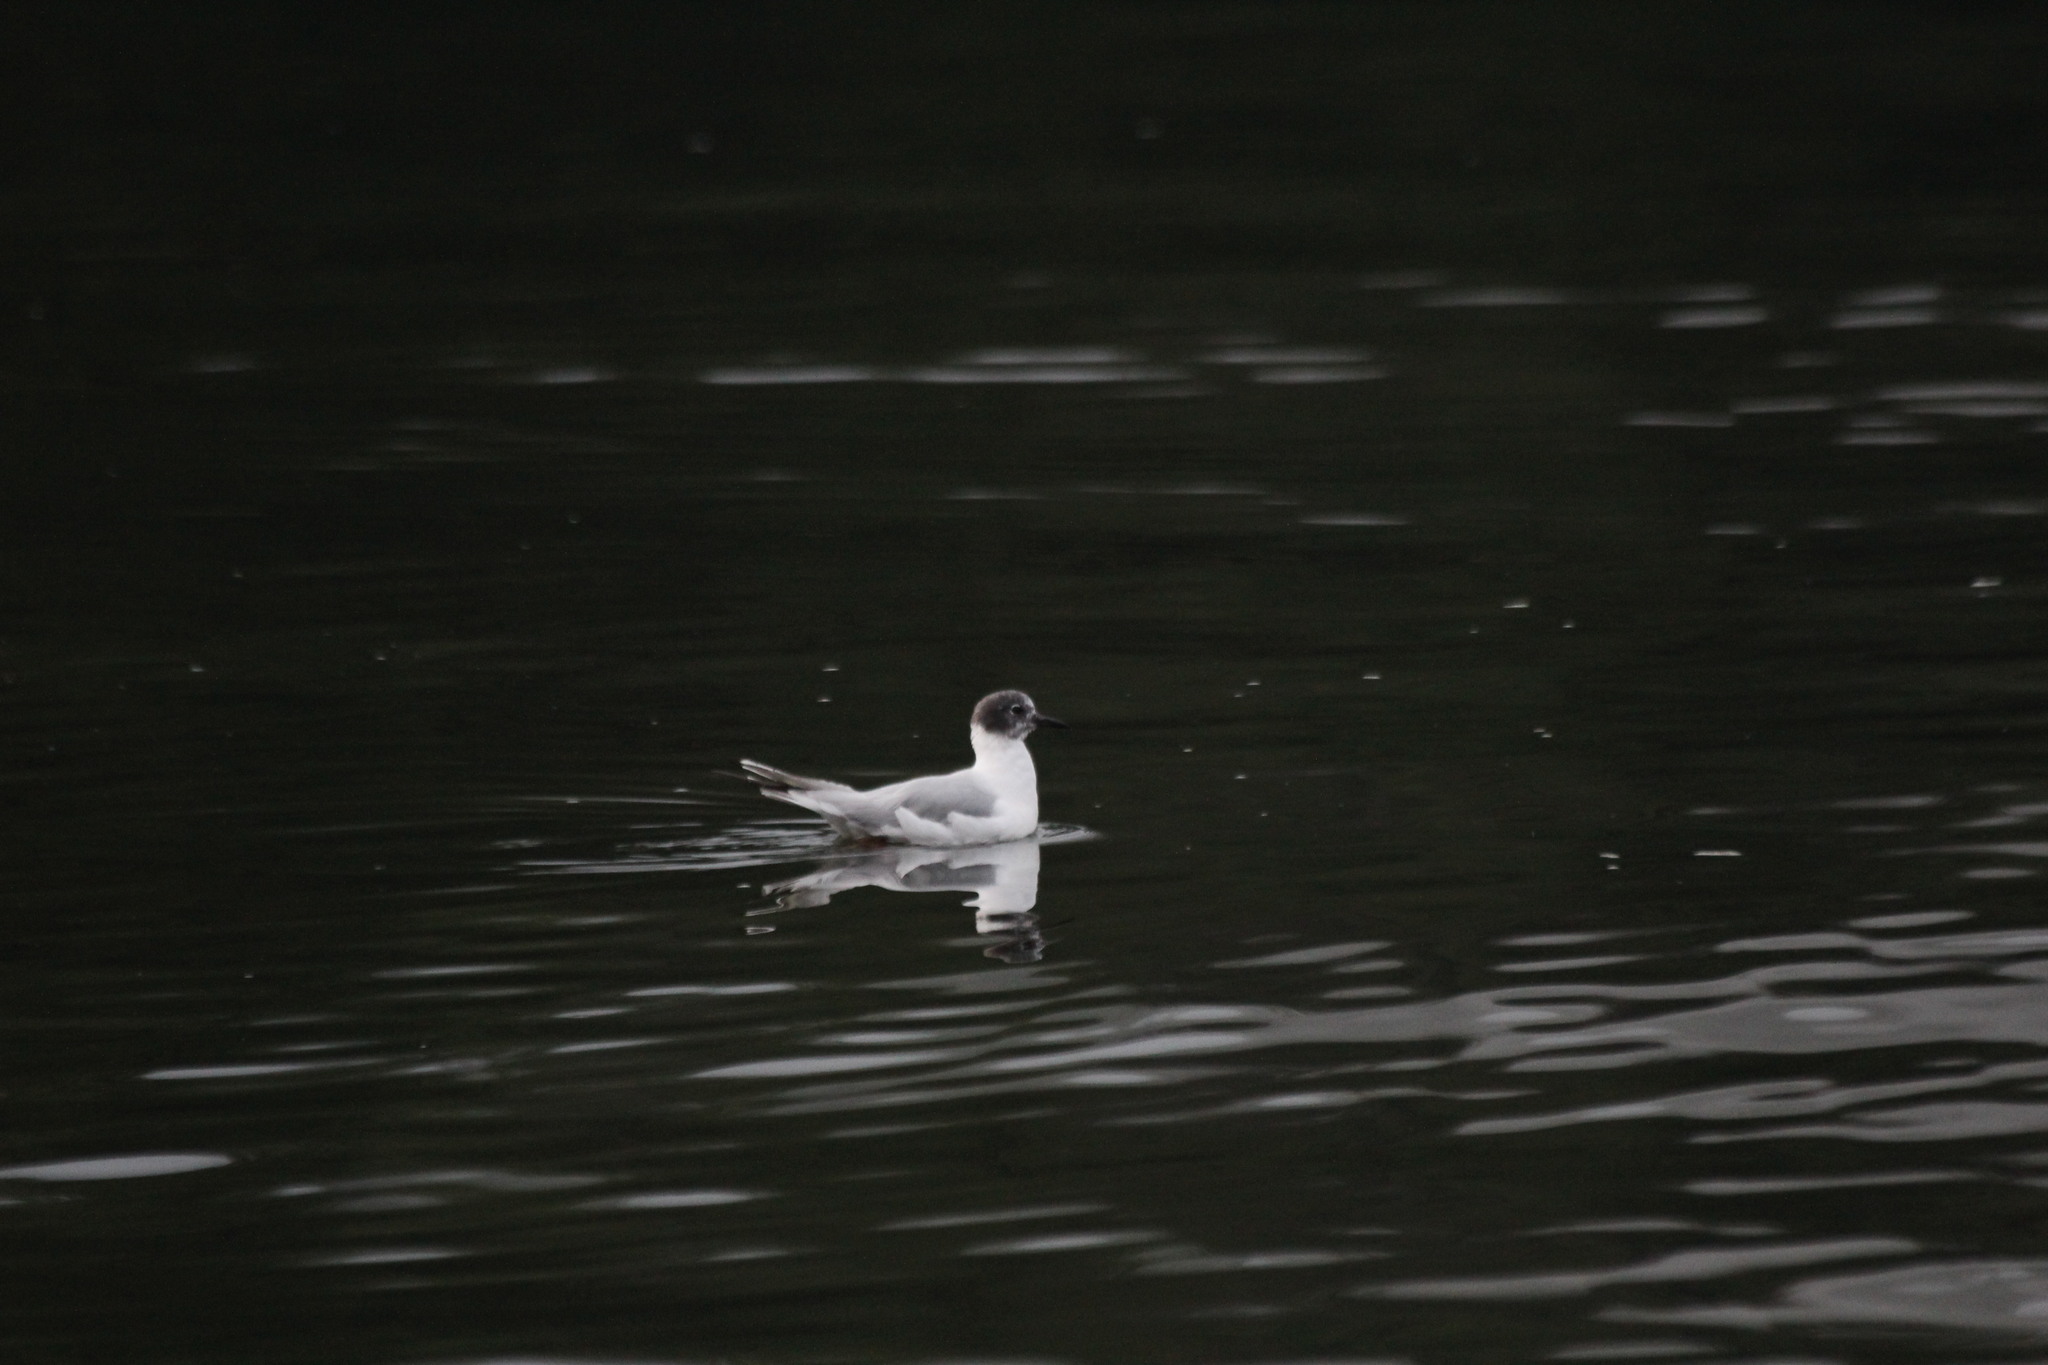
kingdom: Animalia
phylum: Chordata
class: Aves
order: Charadriiformes
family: Laridae
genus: Chroicocephalus
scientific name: Chroicocephalus philadelphia
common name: Bonaparte's gull
